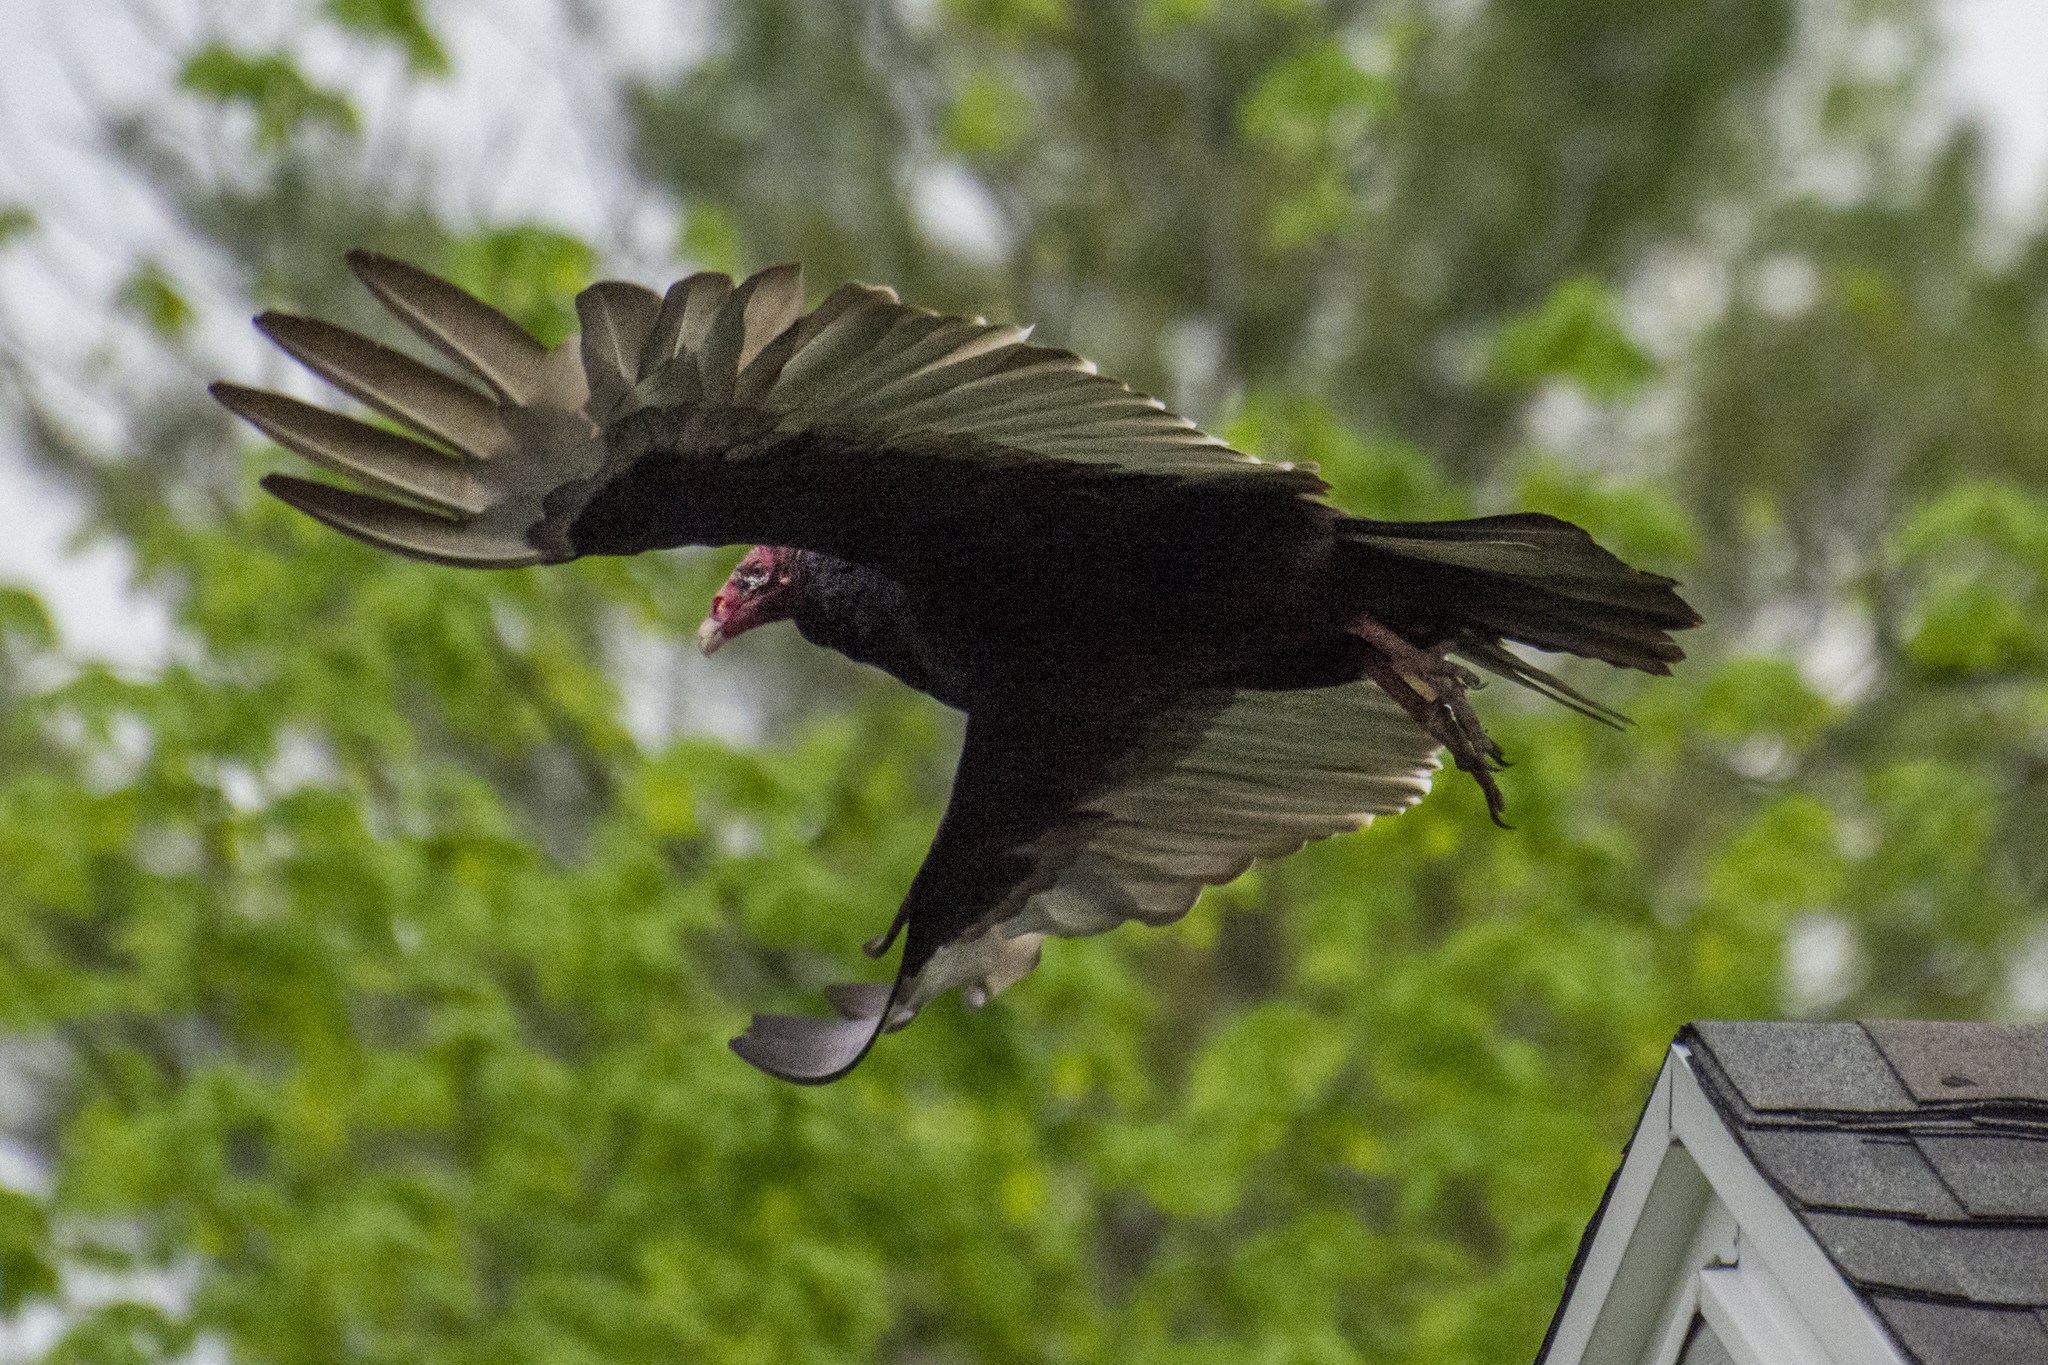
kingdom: Animalia
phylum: Chordata
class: Aves
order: Accipitriformes
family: Cathartidae
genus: Cathartes
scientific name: Cathartes aura
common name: Turkey vulture
